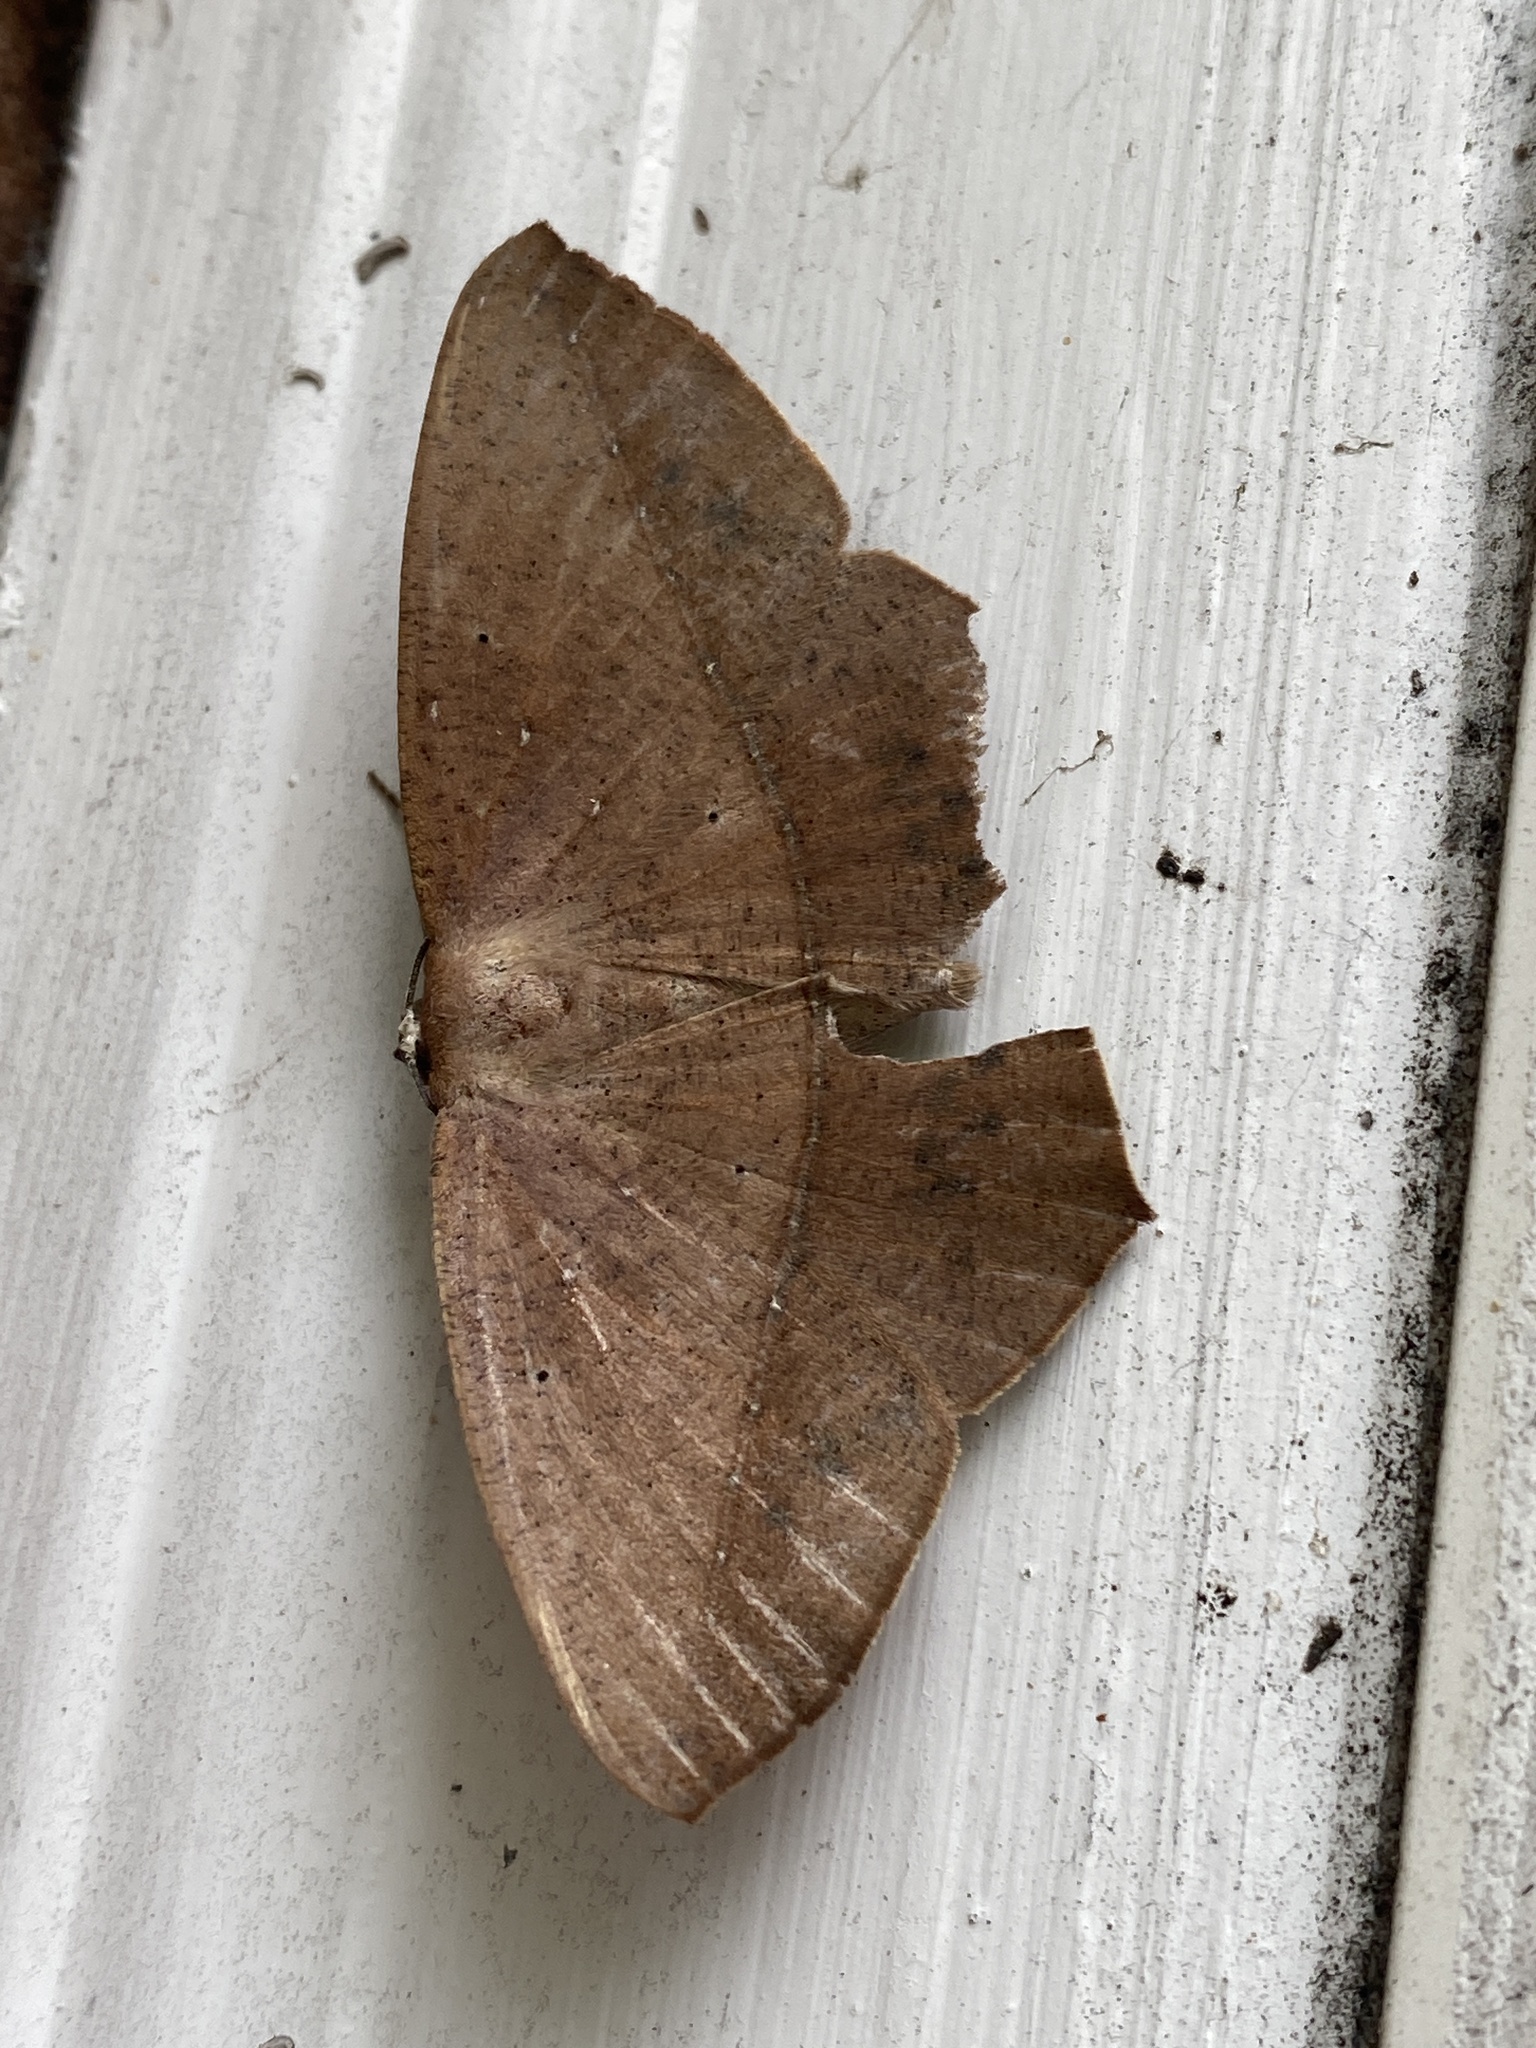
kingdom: Animalia
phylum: Arthropoda
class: Insecta
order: Lepidoptera
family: Geometridae
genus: Prochoerodes
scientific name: Prochoerodes lineola
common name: Large maple spanworm
